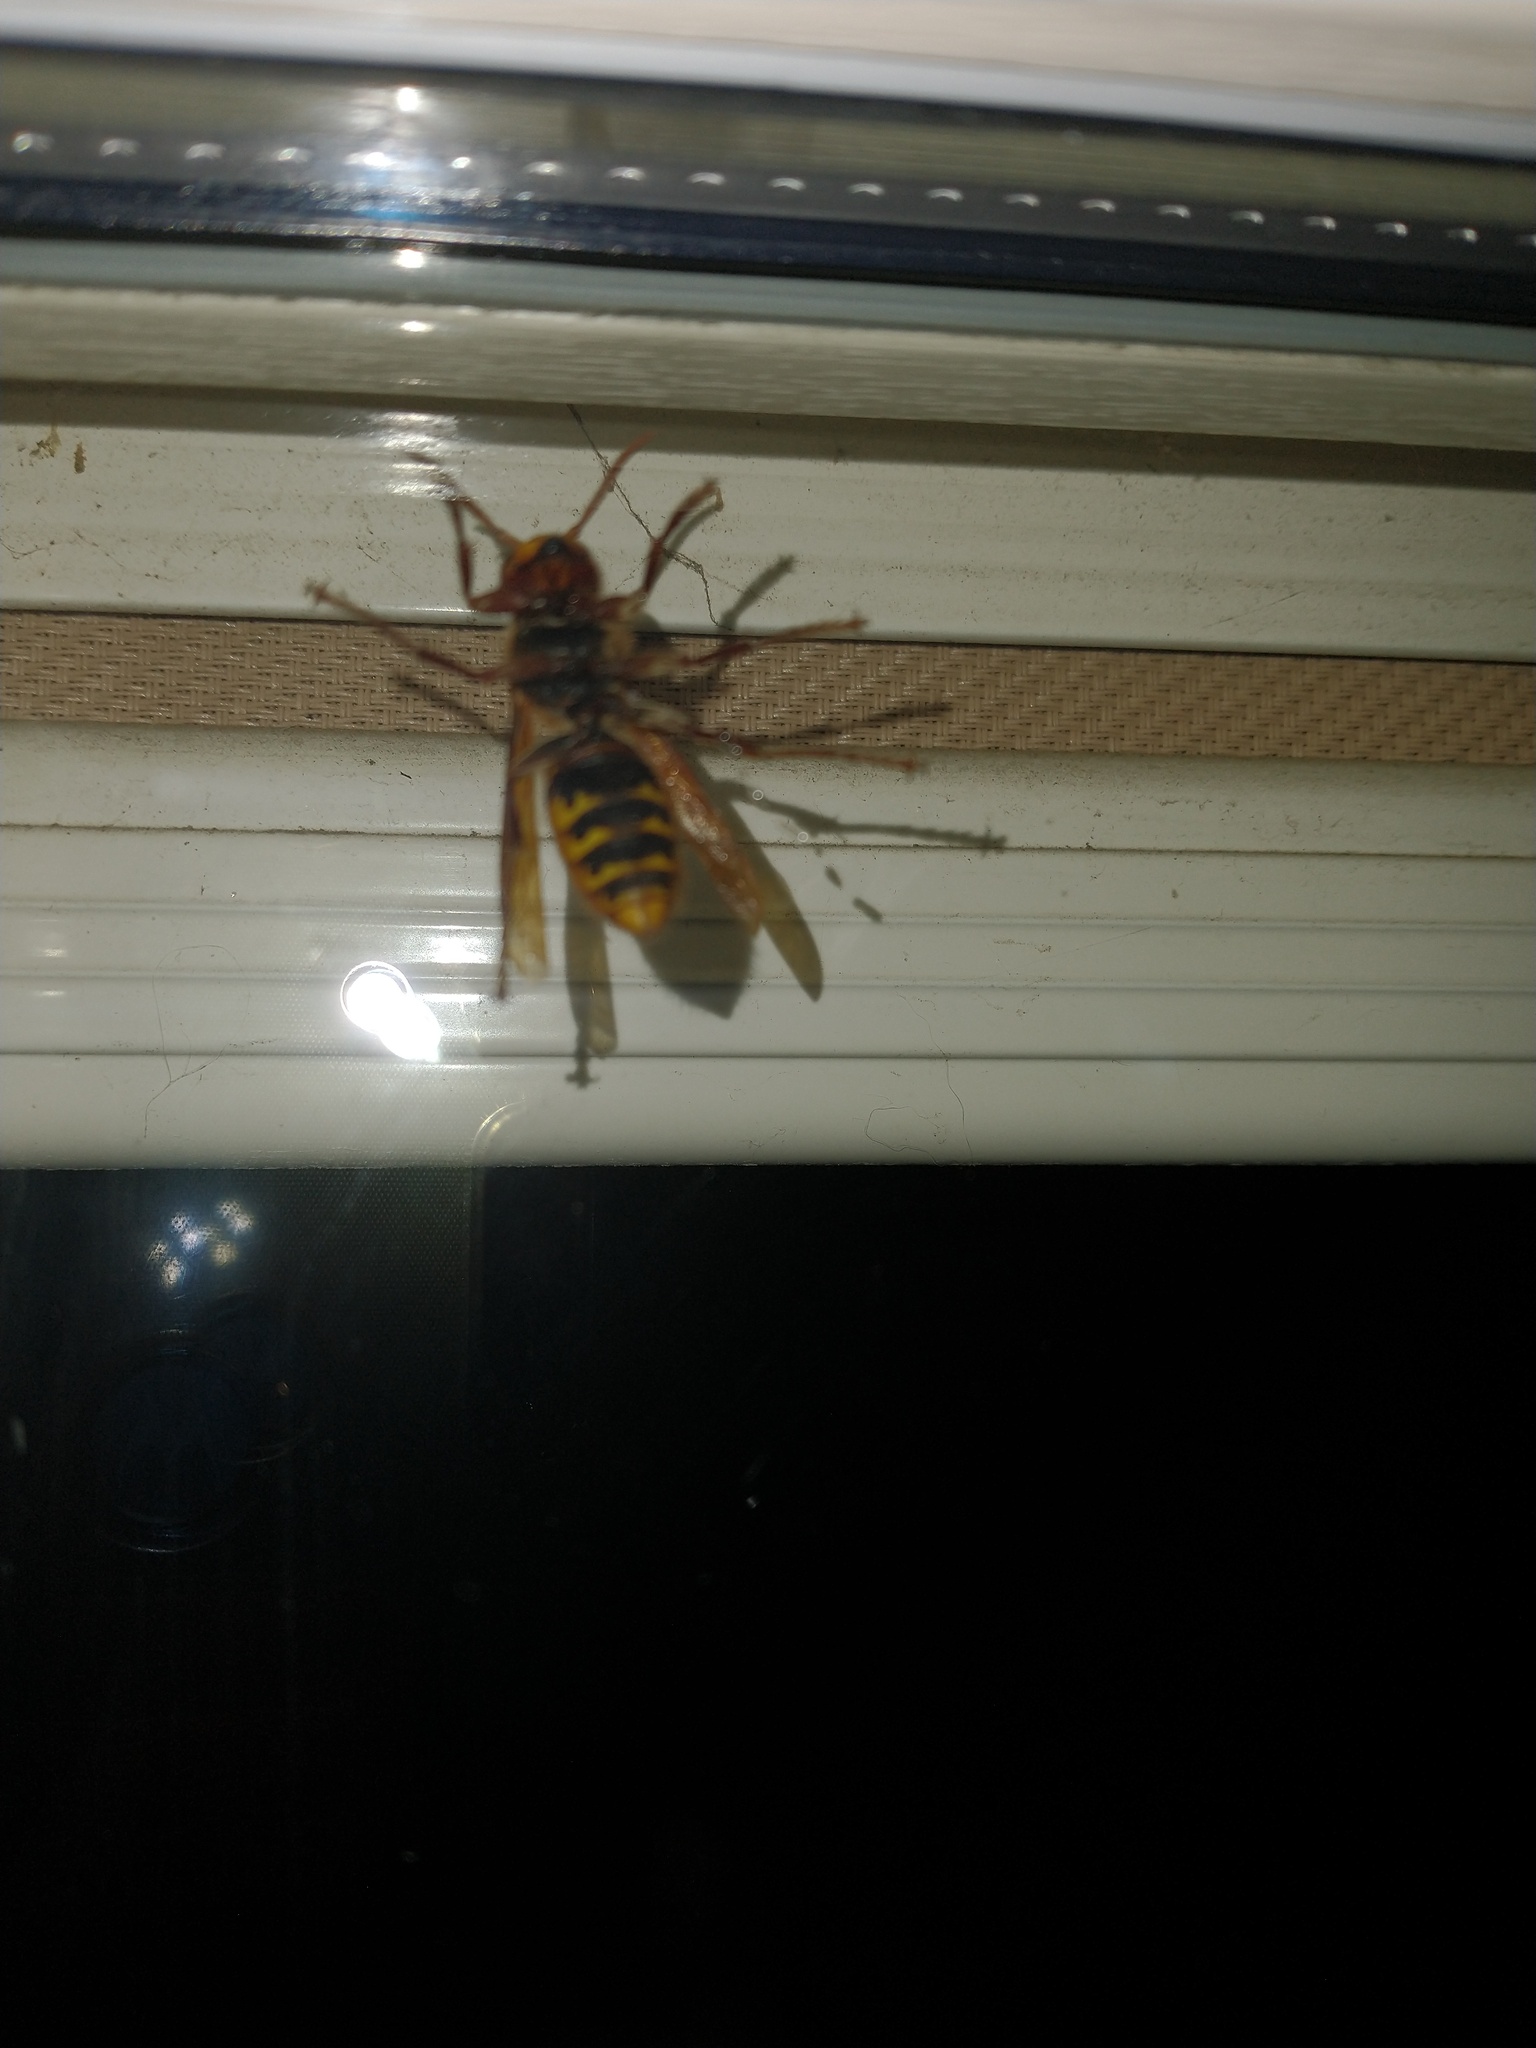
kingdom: Animalia
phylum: Arthropoda
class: Insecta
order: Hymenoptera
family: Vespidae
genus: Vespa
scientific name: Vespa crabro
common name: Hornet
